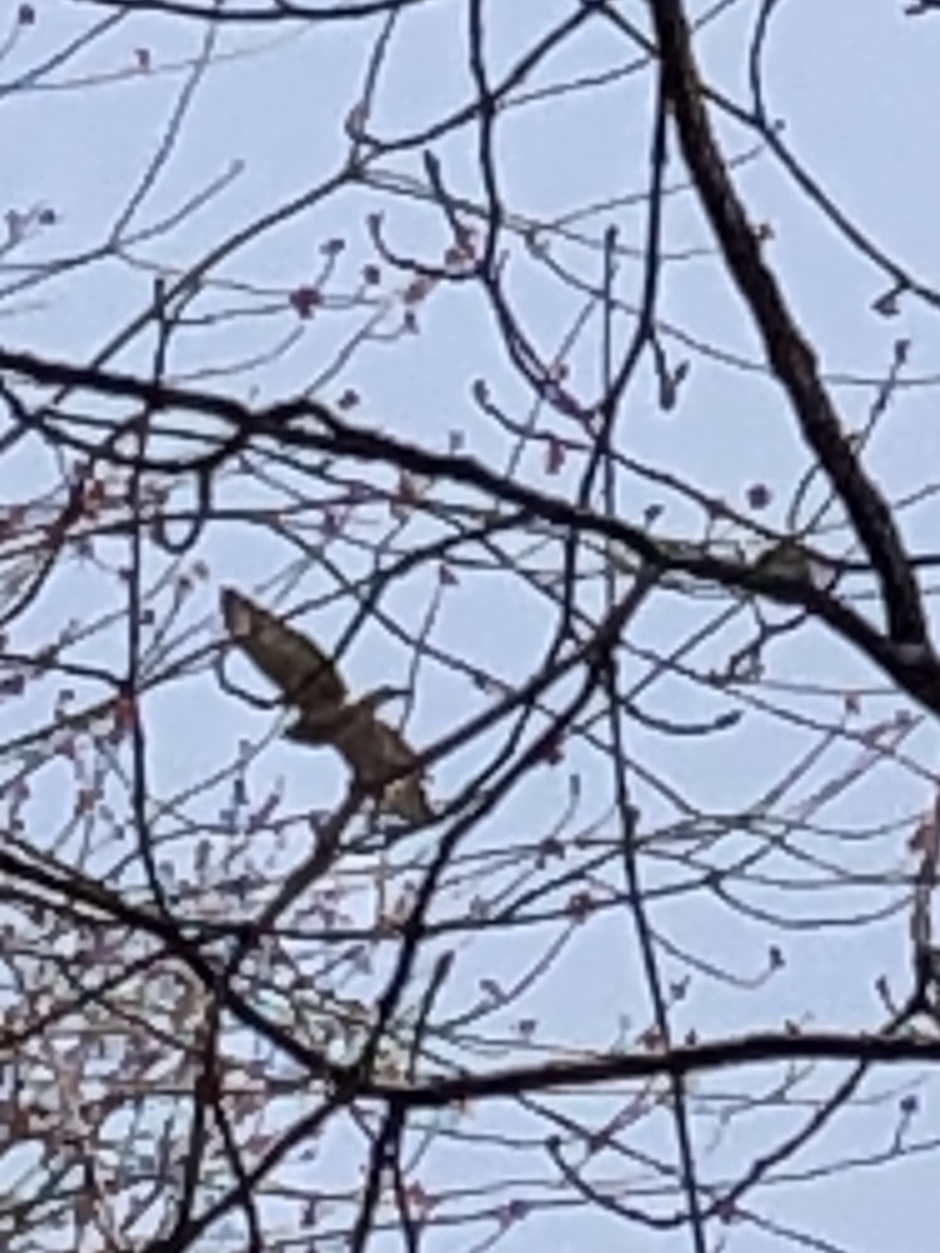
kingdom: Animalia
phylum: Chordata
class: Aves
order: Accipitriformes
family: Accipitridae
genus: Buteo
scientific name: Buteo platypterus
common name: Broad-winged hawk
